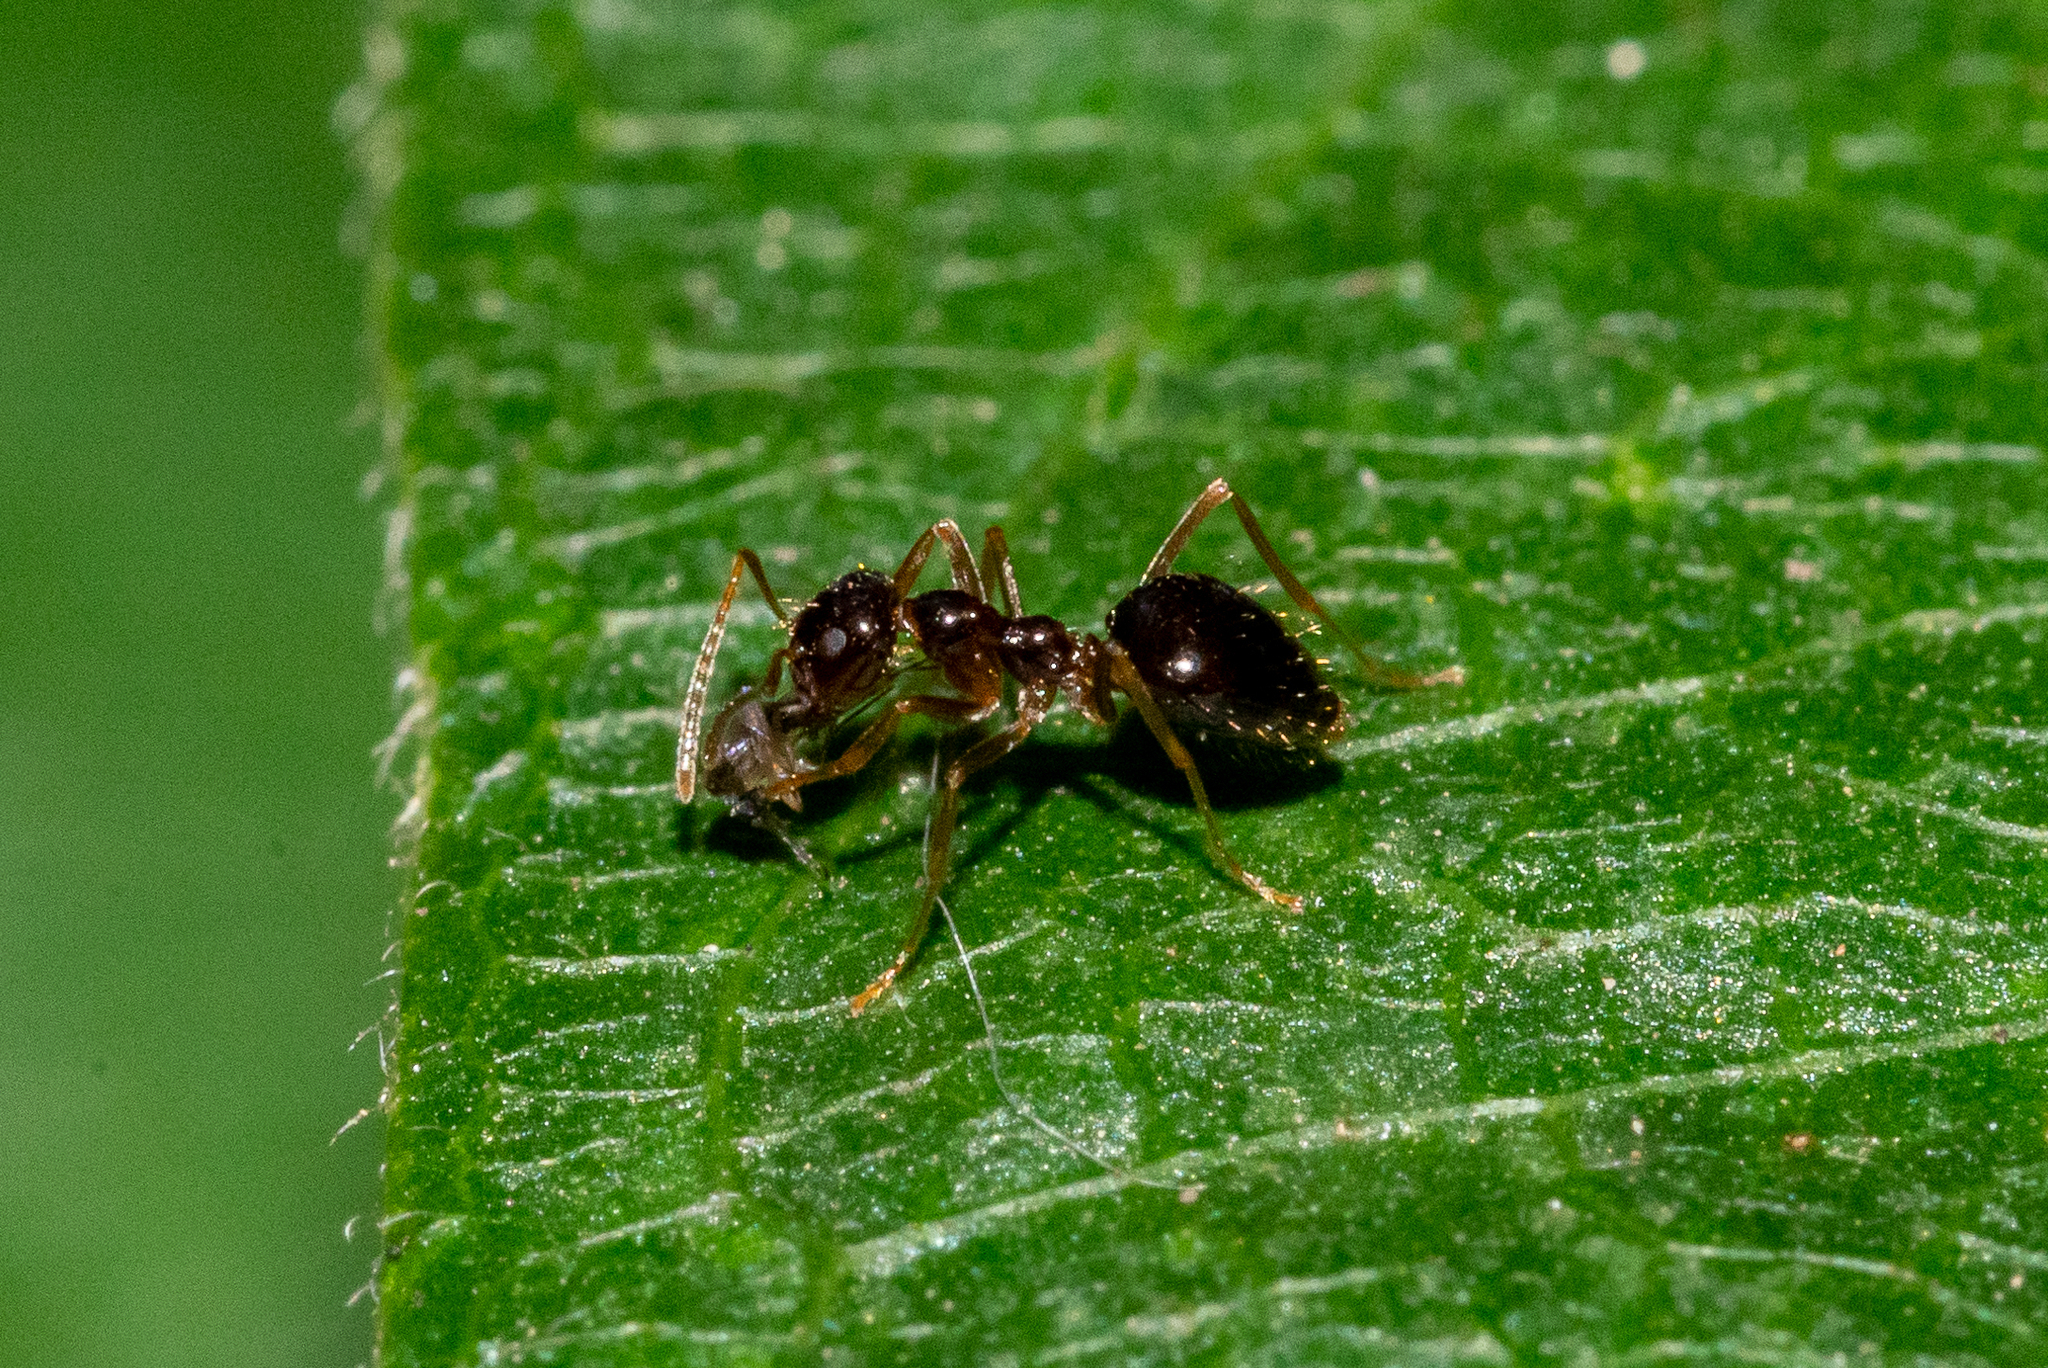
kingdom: Animalia
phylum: Arthropoda
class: Insecta
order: Hymenoptera
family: Formicidae
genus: Prenolepis
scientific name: Prenolepis imparis
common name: Small honey ant
